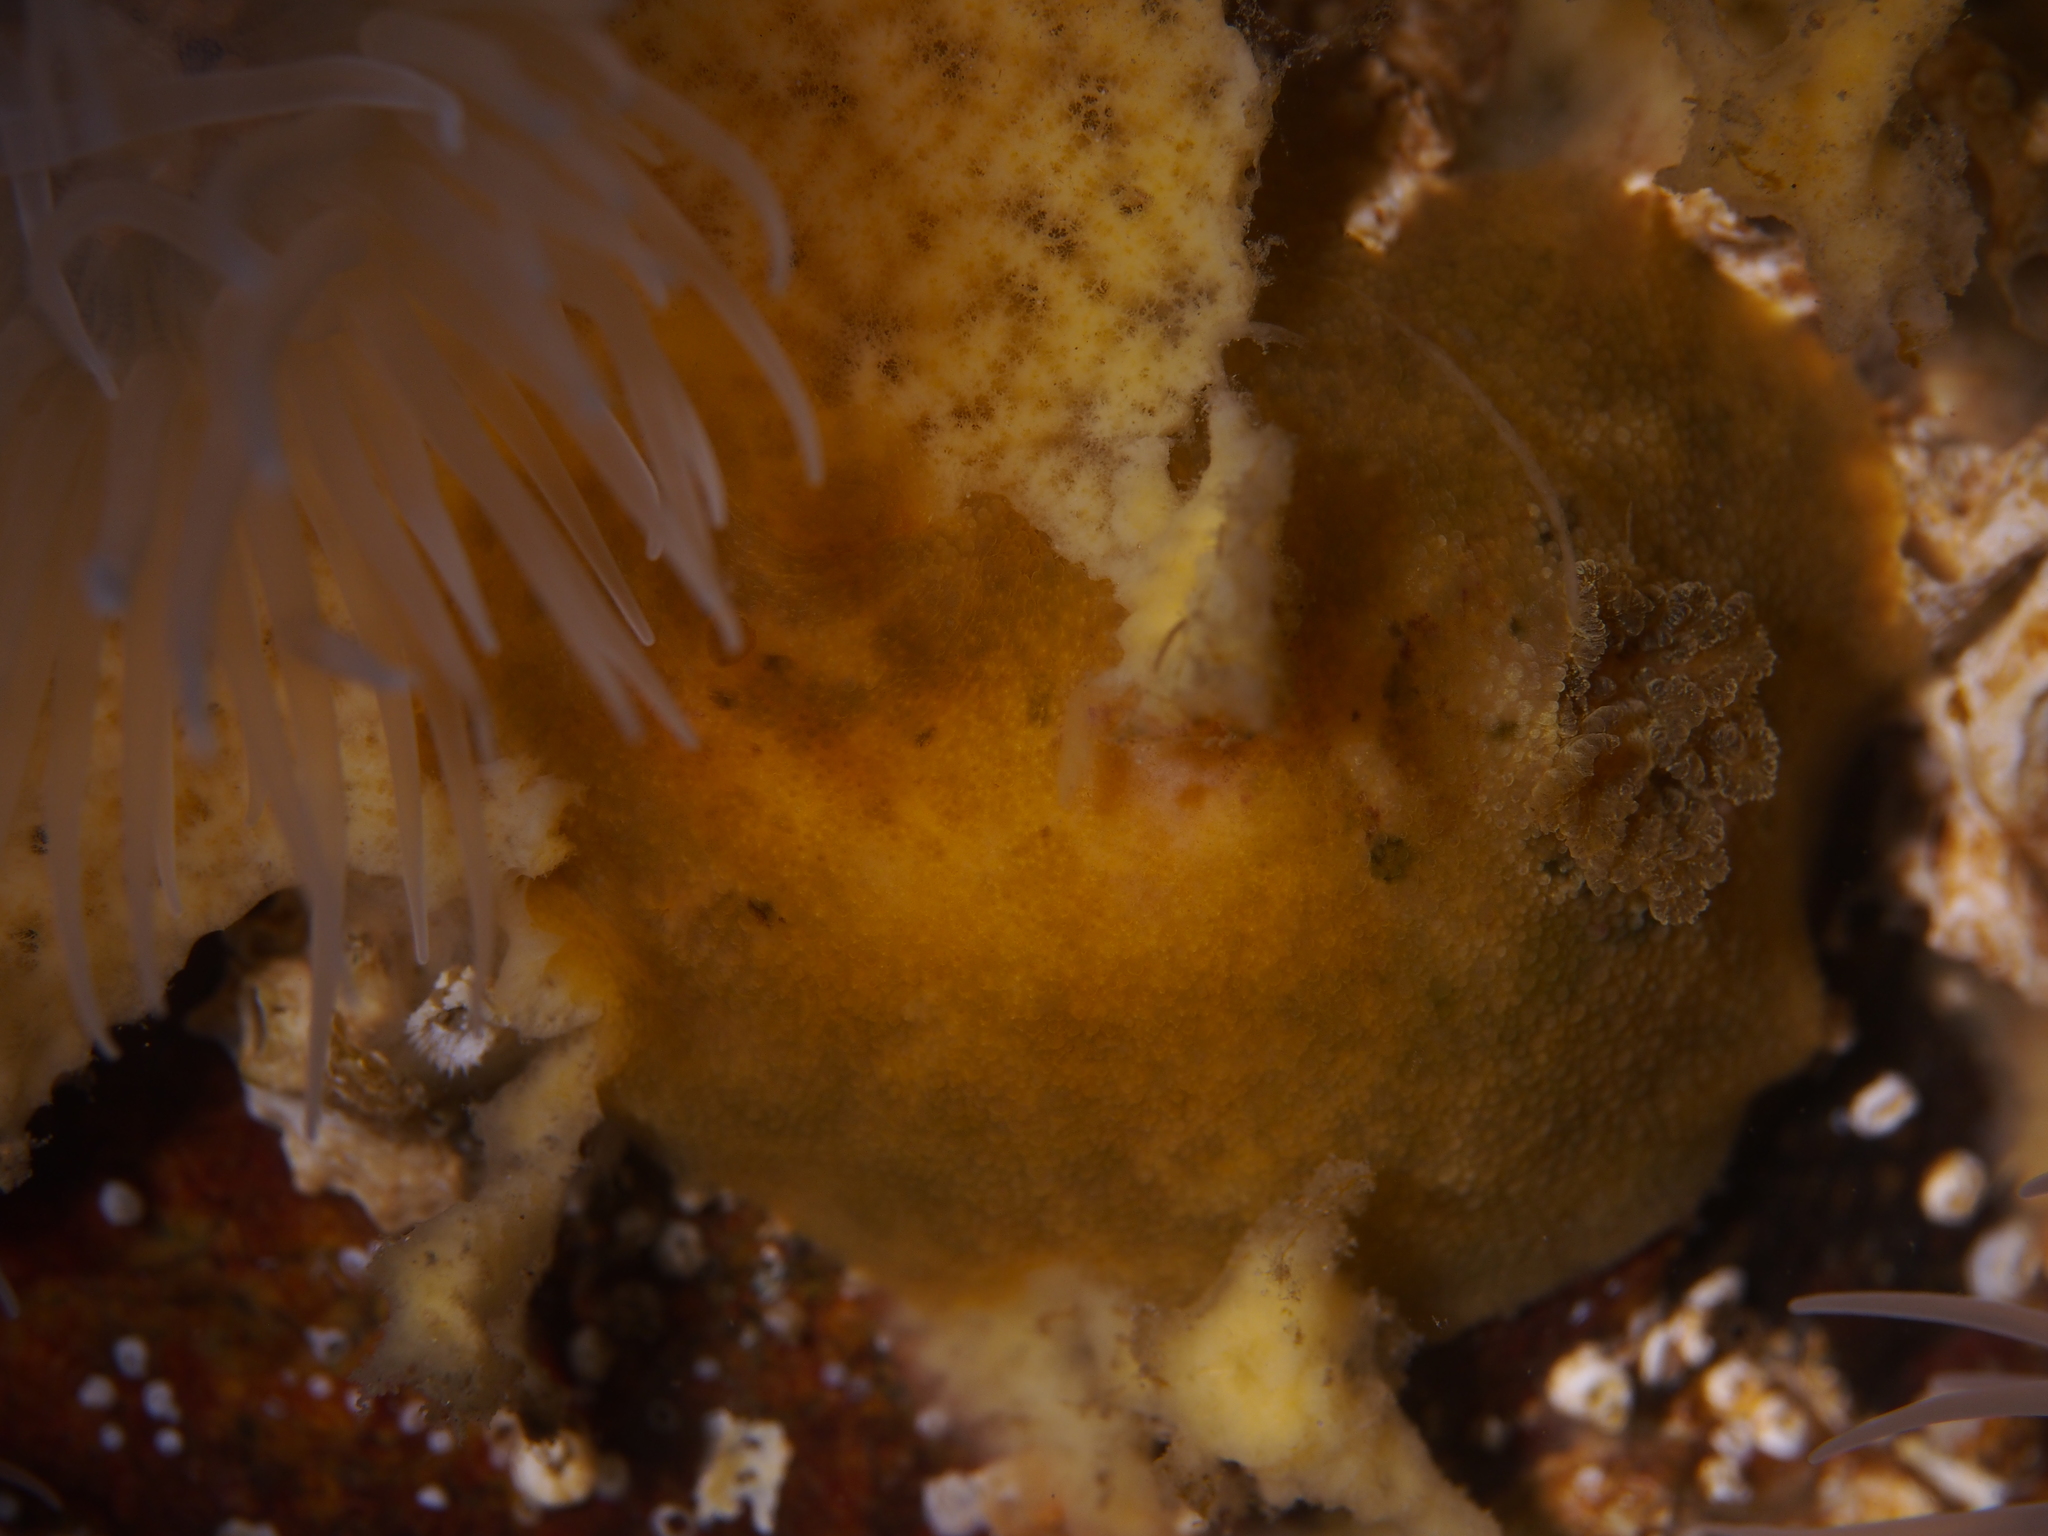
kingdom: Animalia
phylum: Mollusca
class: Gastropoda
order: Nudibranchia
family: Dorididae
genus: Doris
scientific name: Doris pseudoargus
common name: Sea lemon
